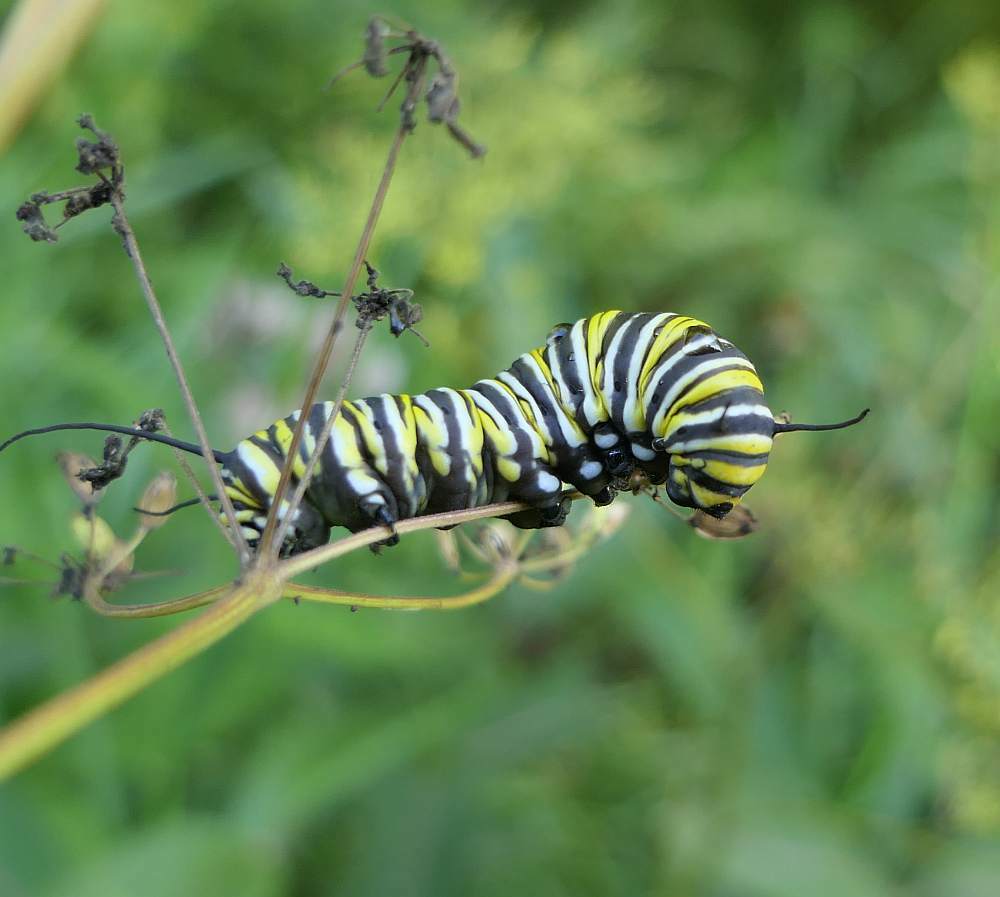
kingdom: Animalia
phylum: Arthropoda
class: Insecta
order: Lepidoptera
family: Nymphalidae
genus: Danaus
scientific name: Danaus plexippus
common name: Monarch
